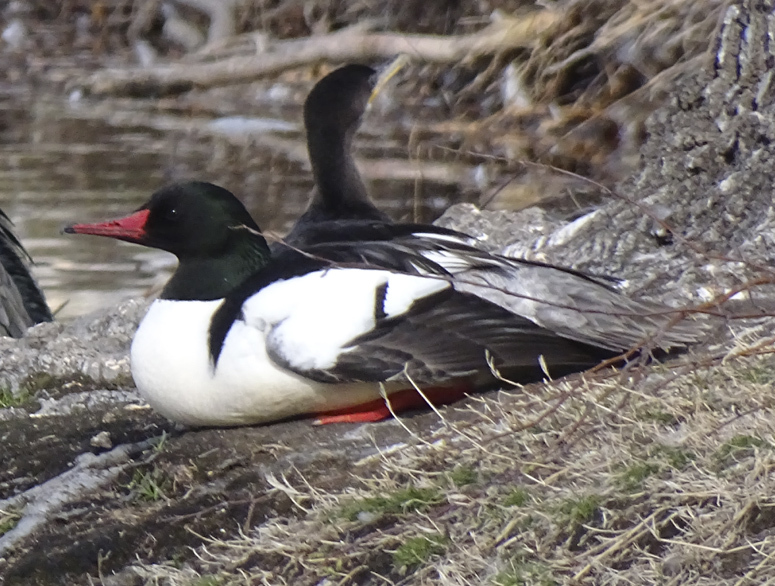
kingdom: Animalia
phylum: Chordata
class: Aves
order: Anseriformes
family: Anatidae
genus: Mergus
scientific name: Mergus merganser
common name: Common merganser
